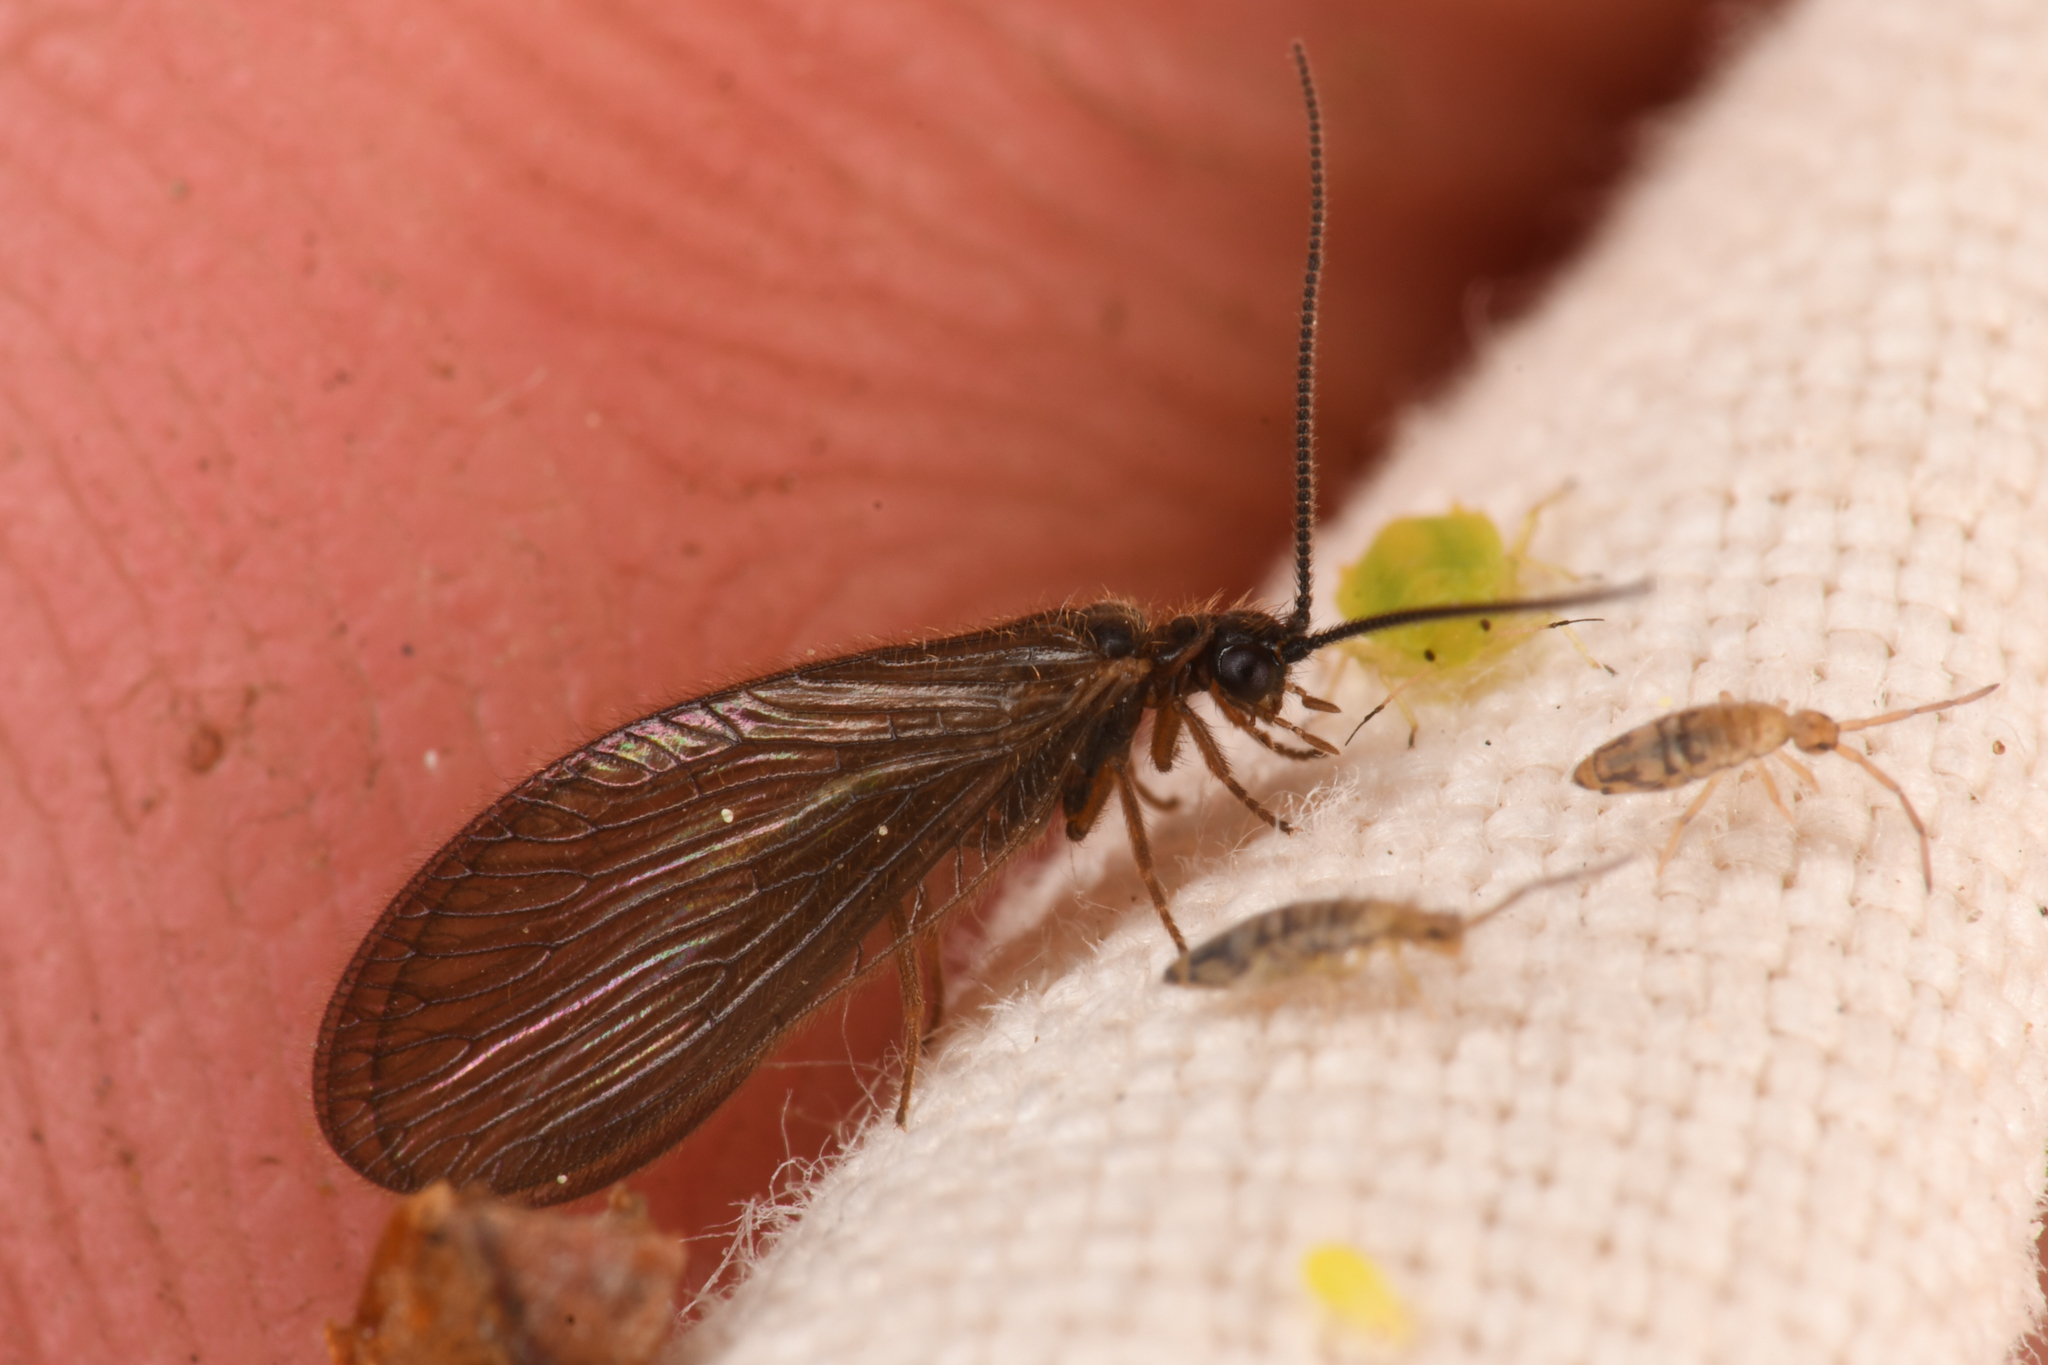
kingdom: Animalia
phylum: Arthropoda
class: Insecta
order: Neuroptera
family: Sisyridae
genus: Sisyra
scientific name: Sisyra nigra
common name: Black spongillafly
